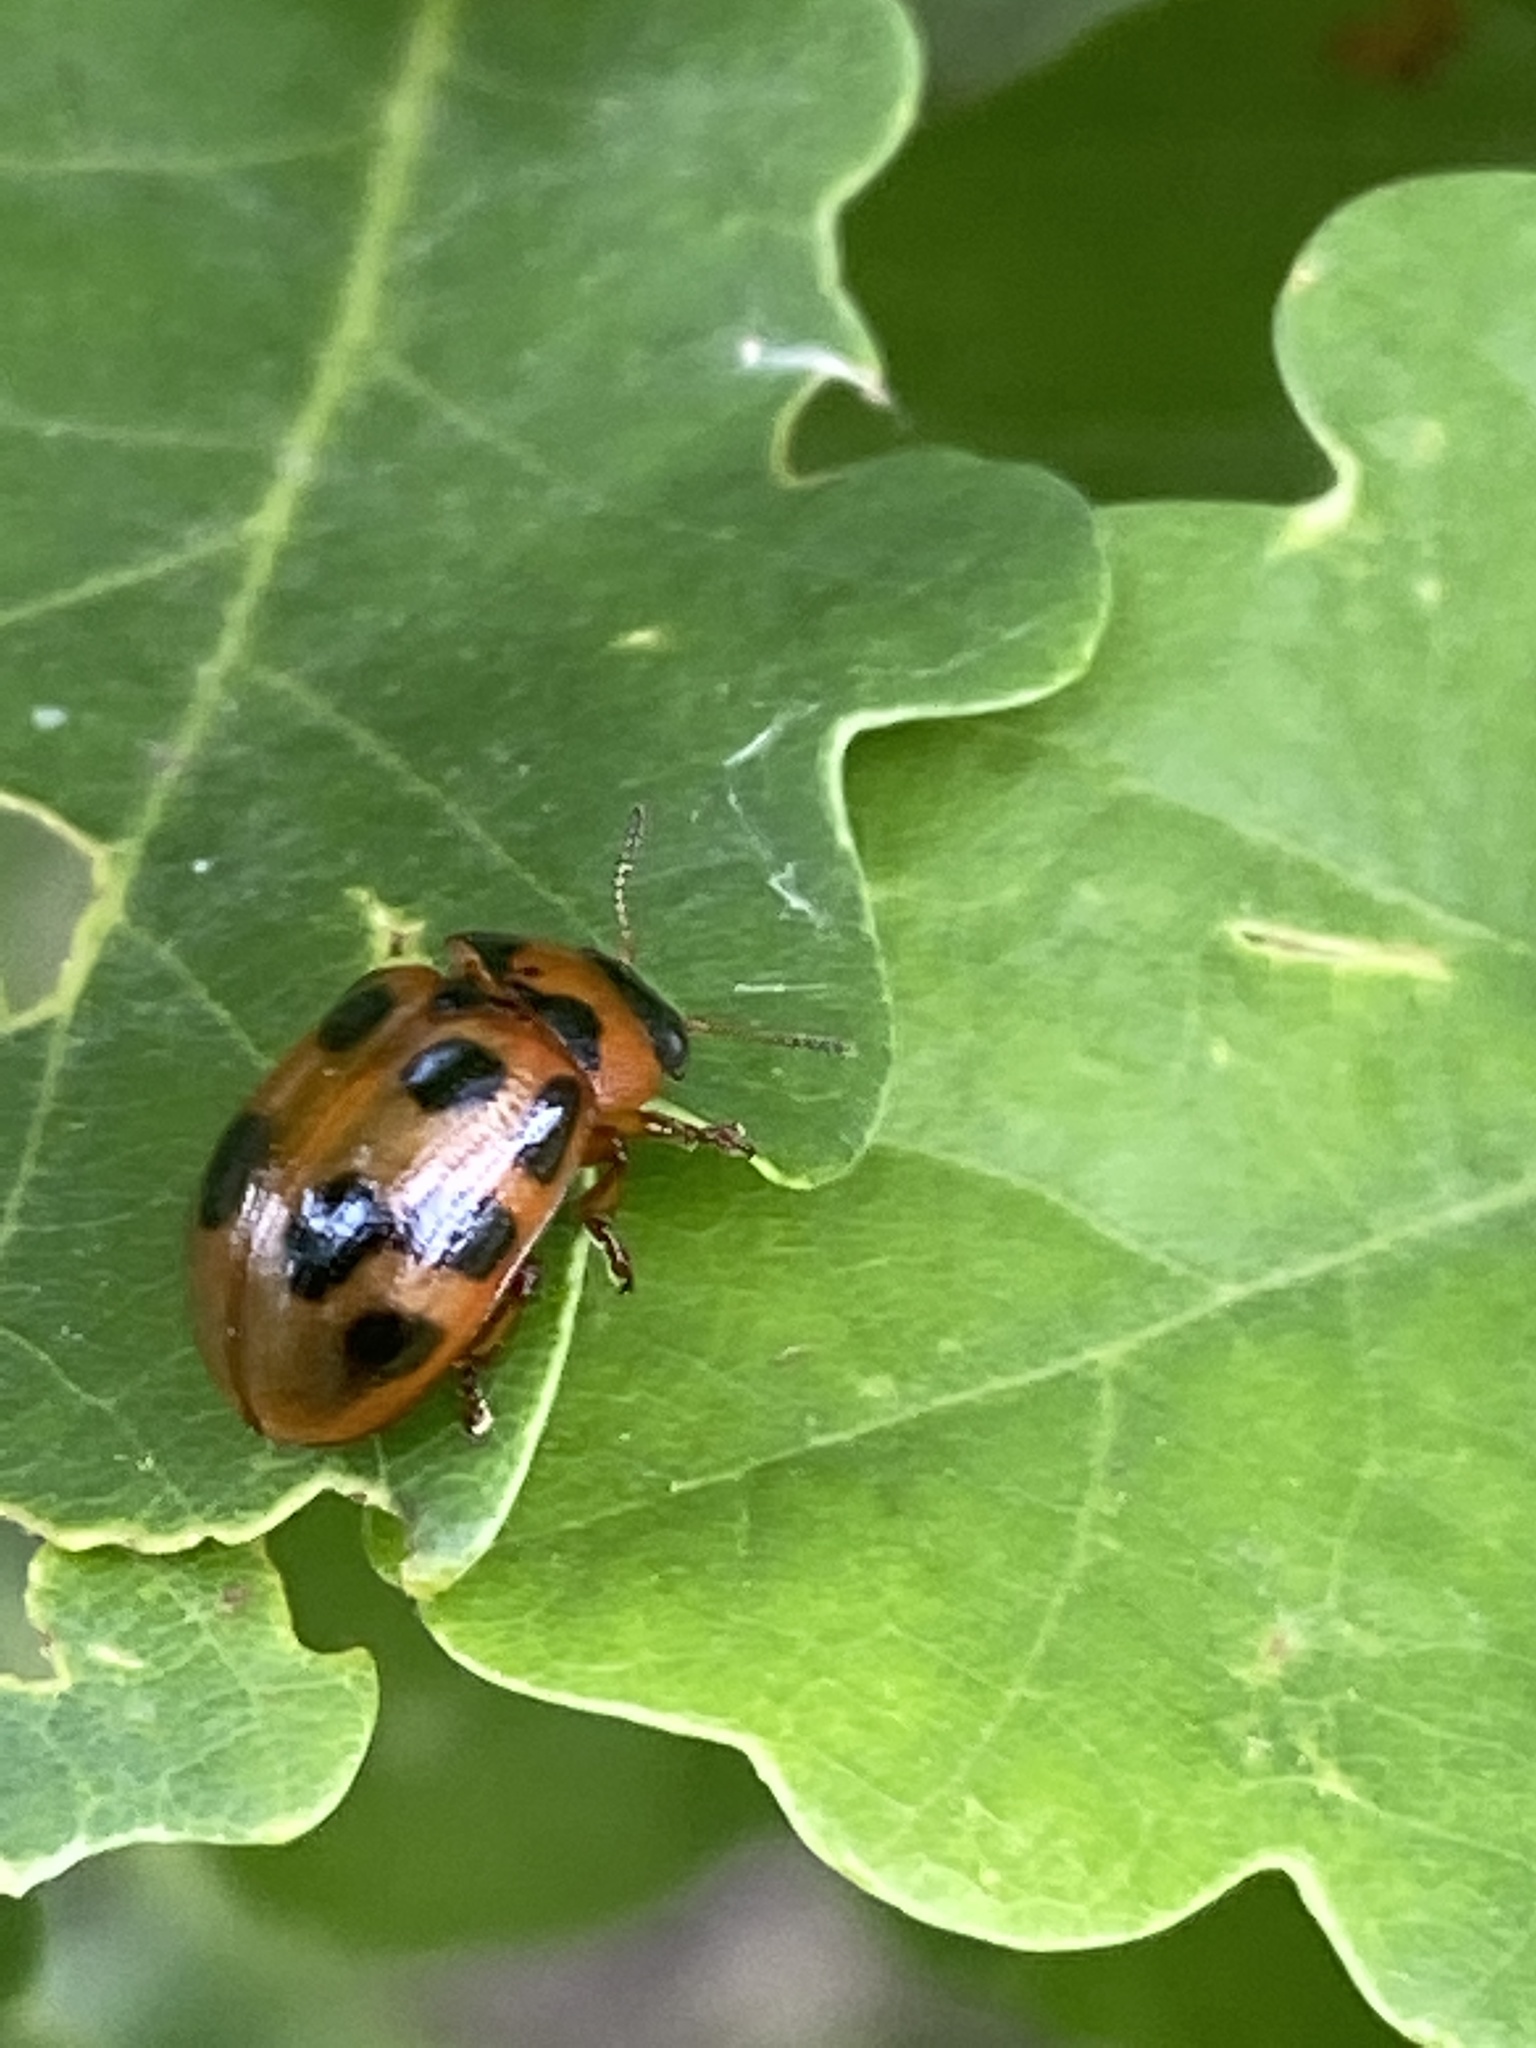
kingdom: Animalia
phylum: Arthropoda
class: Insecta
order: Coleoptera
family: Chrysomelidae
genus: Gonioctena
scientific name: Gonioctena decemnotata
